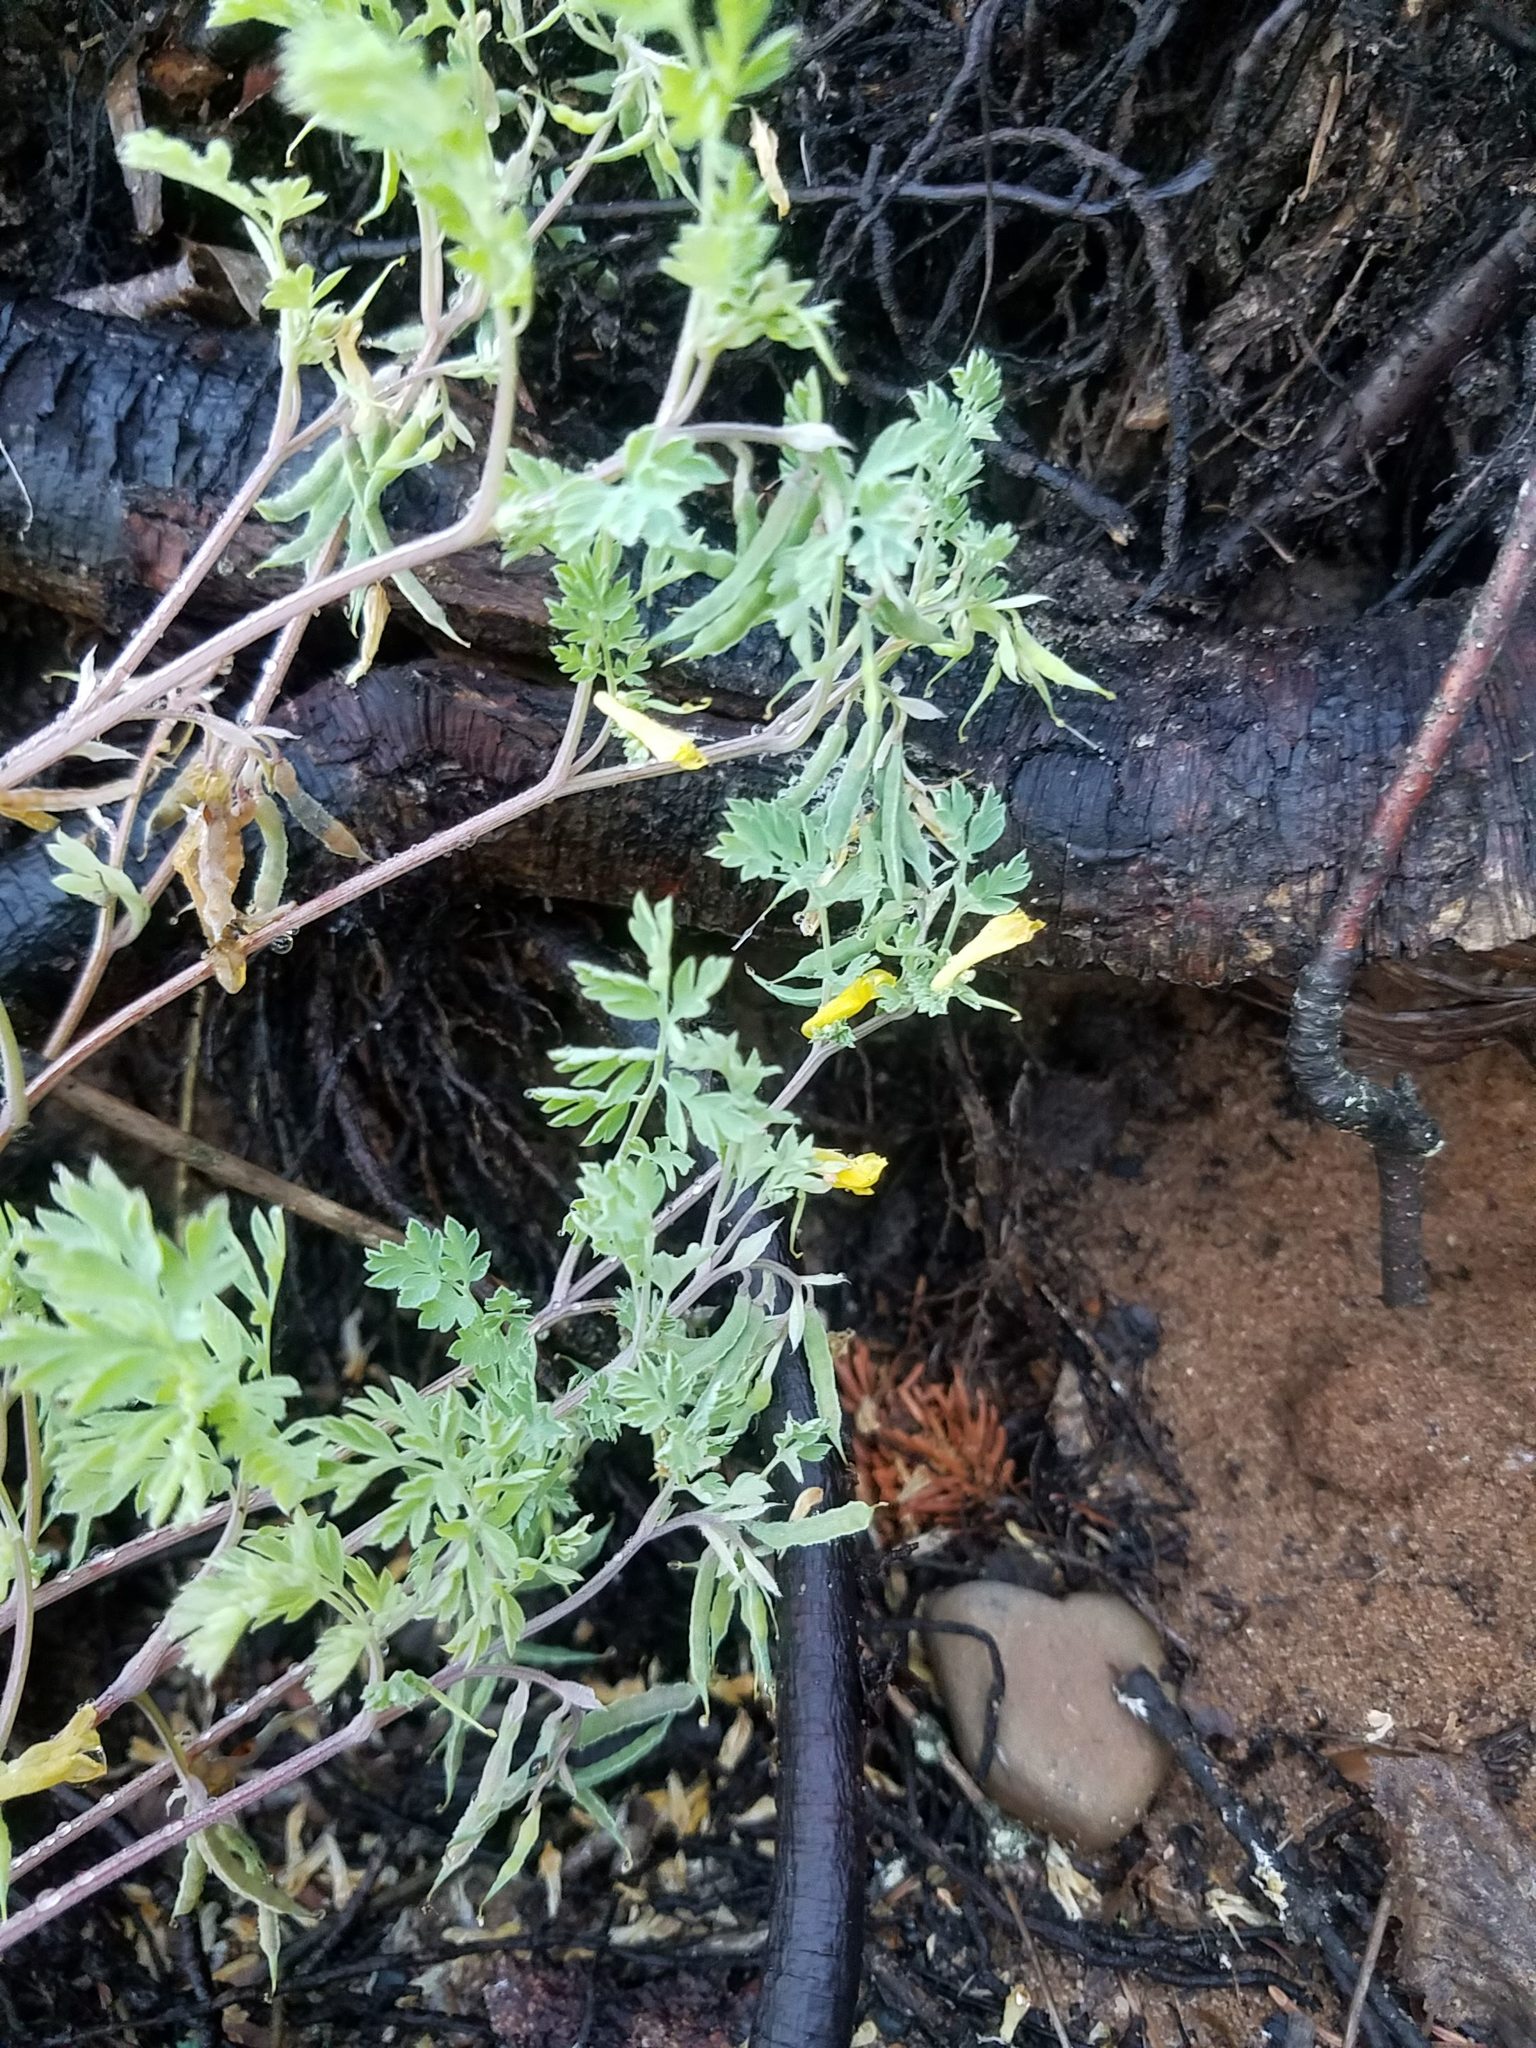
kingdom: Plantae
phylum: Tracheophyta
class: Magnoliopsida
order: Ranunculales
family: Papaveraceae
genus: Corydalis
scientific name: Corydalis aurea
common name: Golden corydalis
